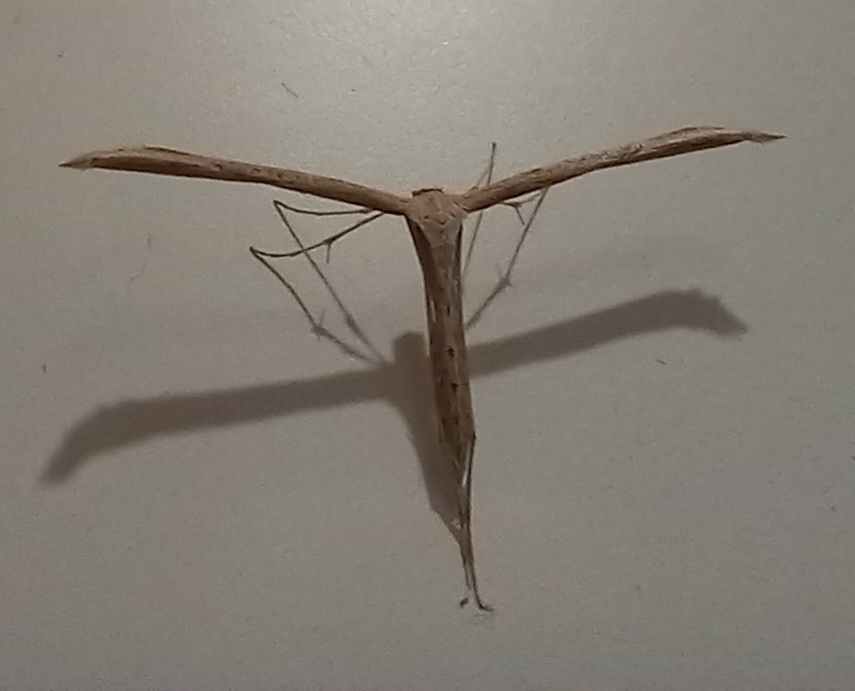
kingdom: Animalia
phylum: Arthropoda
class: Insecta
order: Lepidoptera
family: Pterophoridae
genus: Emmelina
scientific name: Emmelina monodactyla
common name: Common plume
